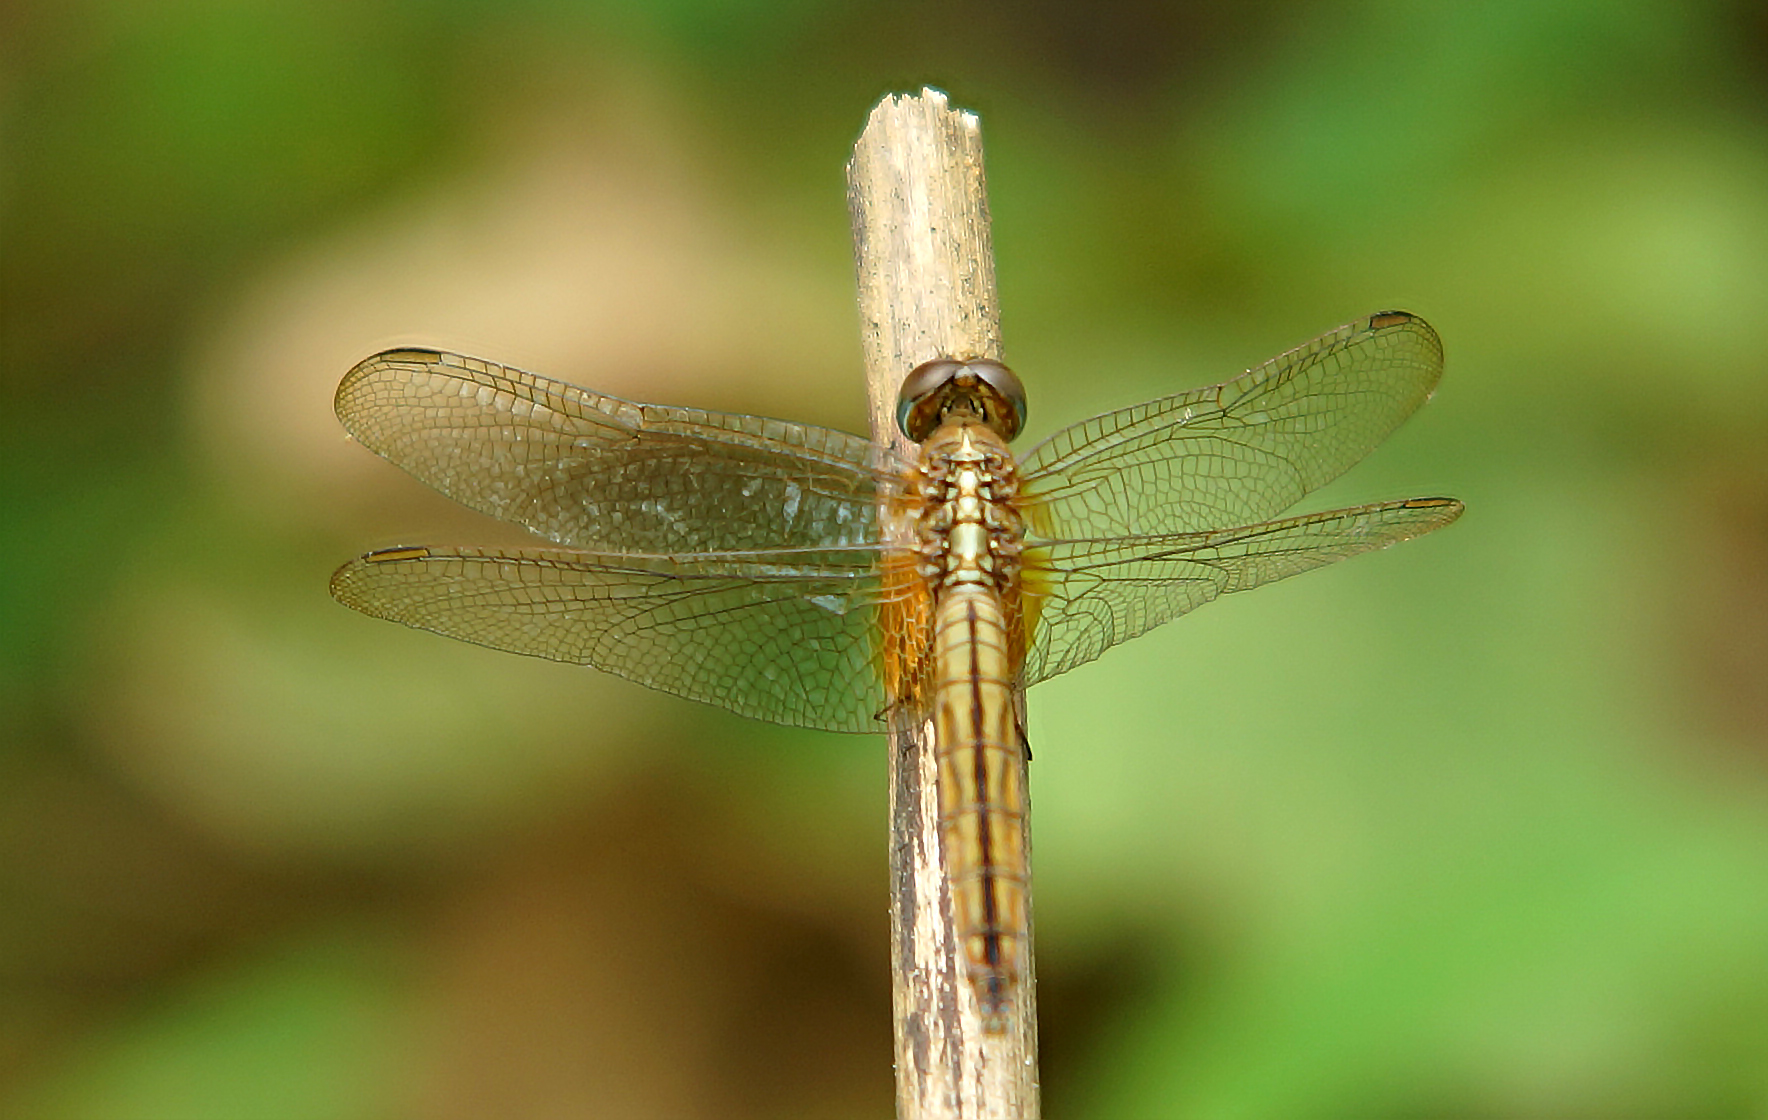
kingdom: Animalia
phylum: Arthropoda
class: Insecta
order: Odonata
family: Libellulidae
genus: Crocothemis
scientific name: Crocothemis servilia
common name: Scarlet skimmer
